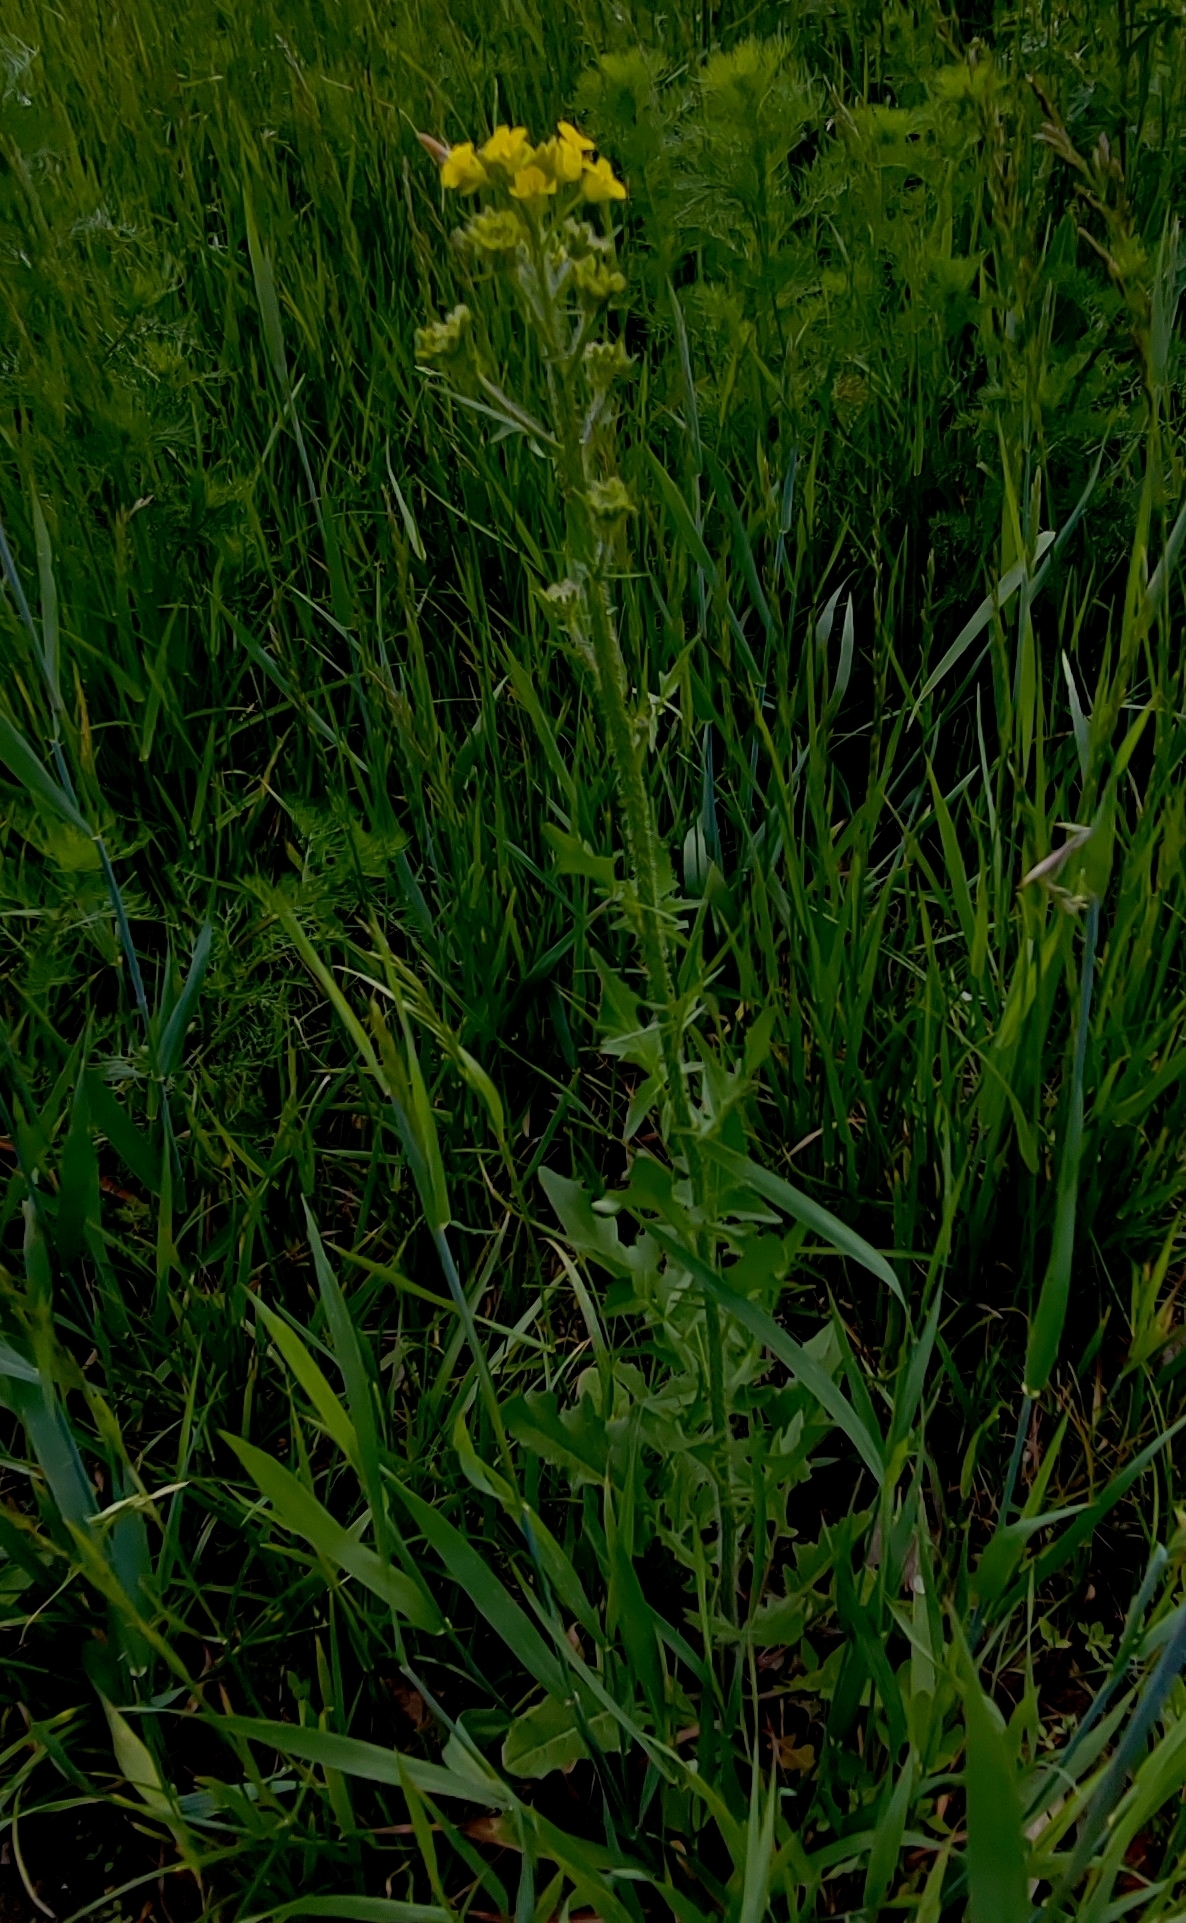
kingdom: Plantae
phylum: Tracheophyta
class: Magnoliopsida
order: Brassicales
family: Brassicaceae
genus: Sisymbrium
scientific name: Sisymbrium loeselii
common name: False london-rocket
